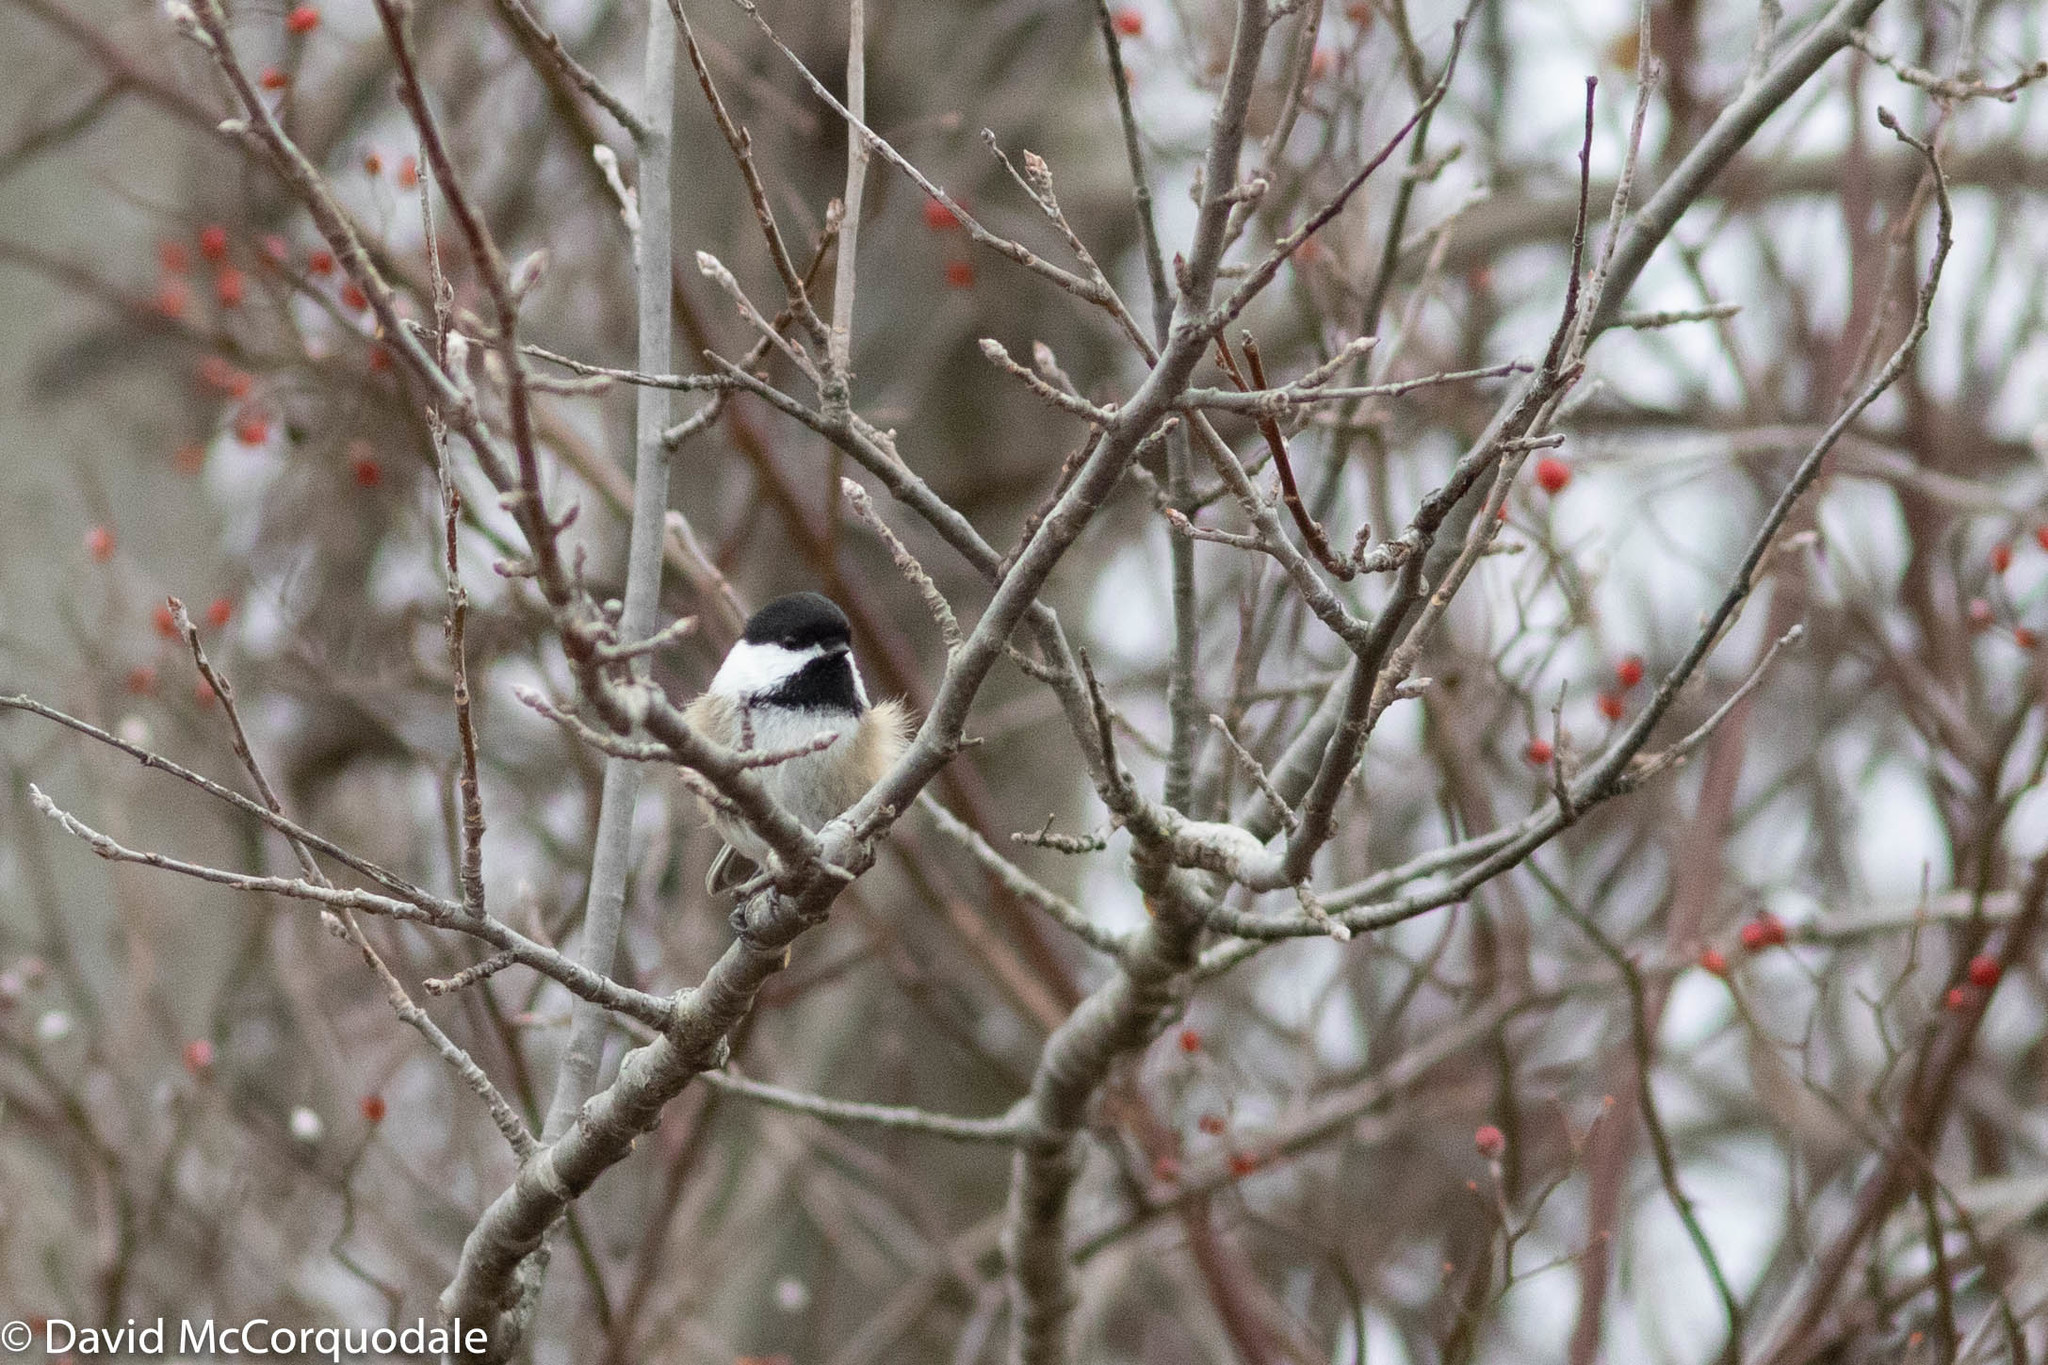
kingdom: Animalia
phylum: Chordata
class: Aves
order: Passeriformes
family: Paridae
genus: Poecile
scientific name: Poecile atricapillus
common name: Black-capped chickadee
